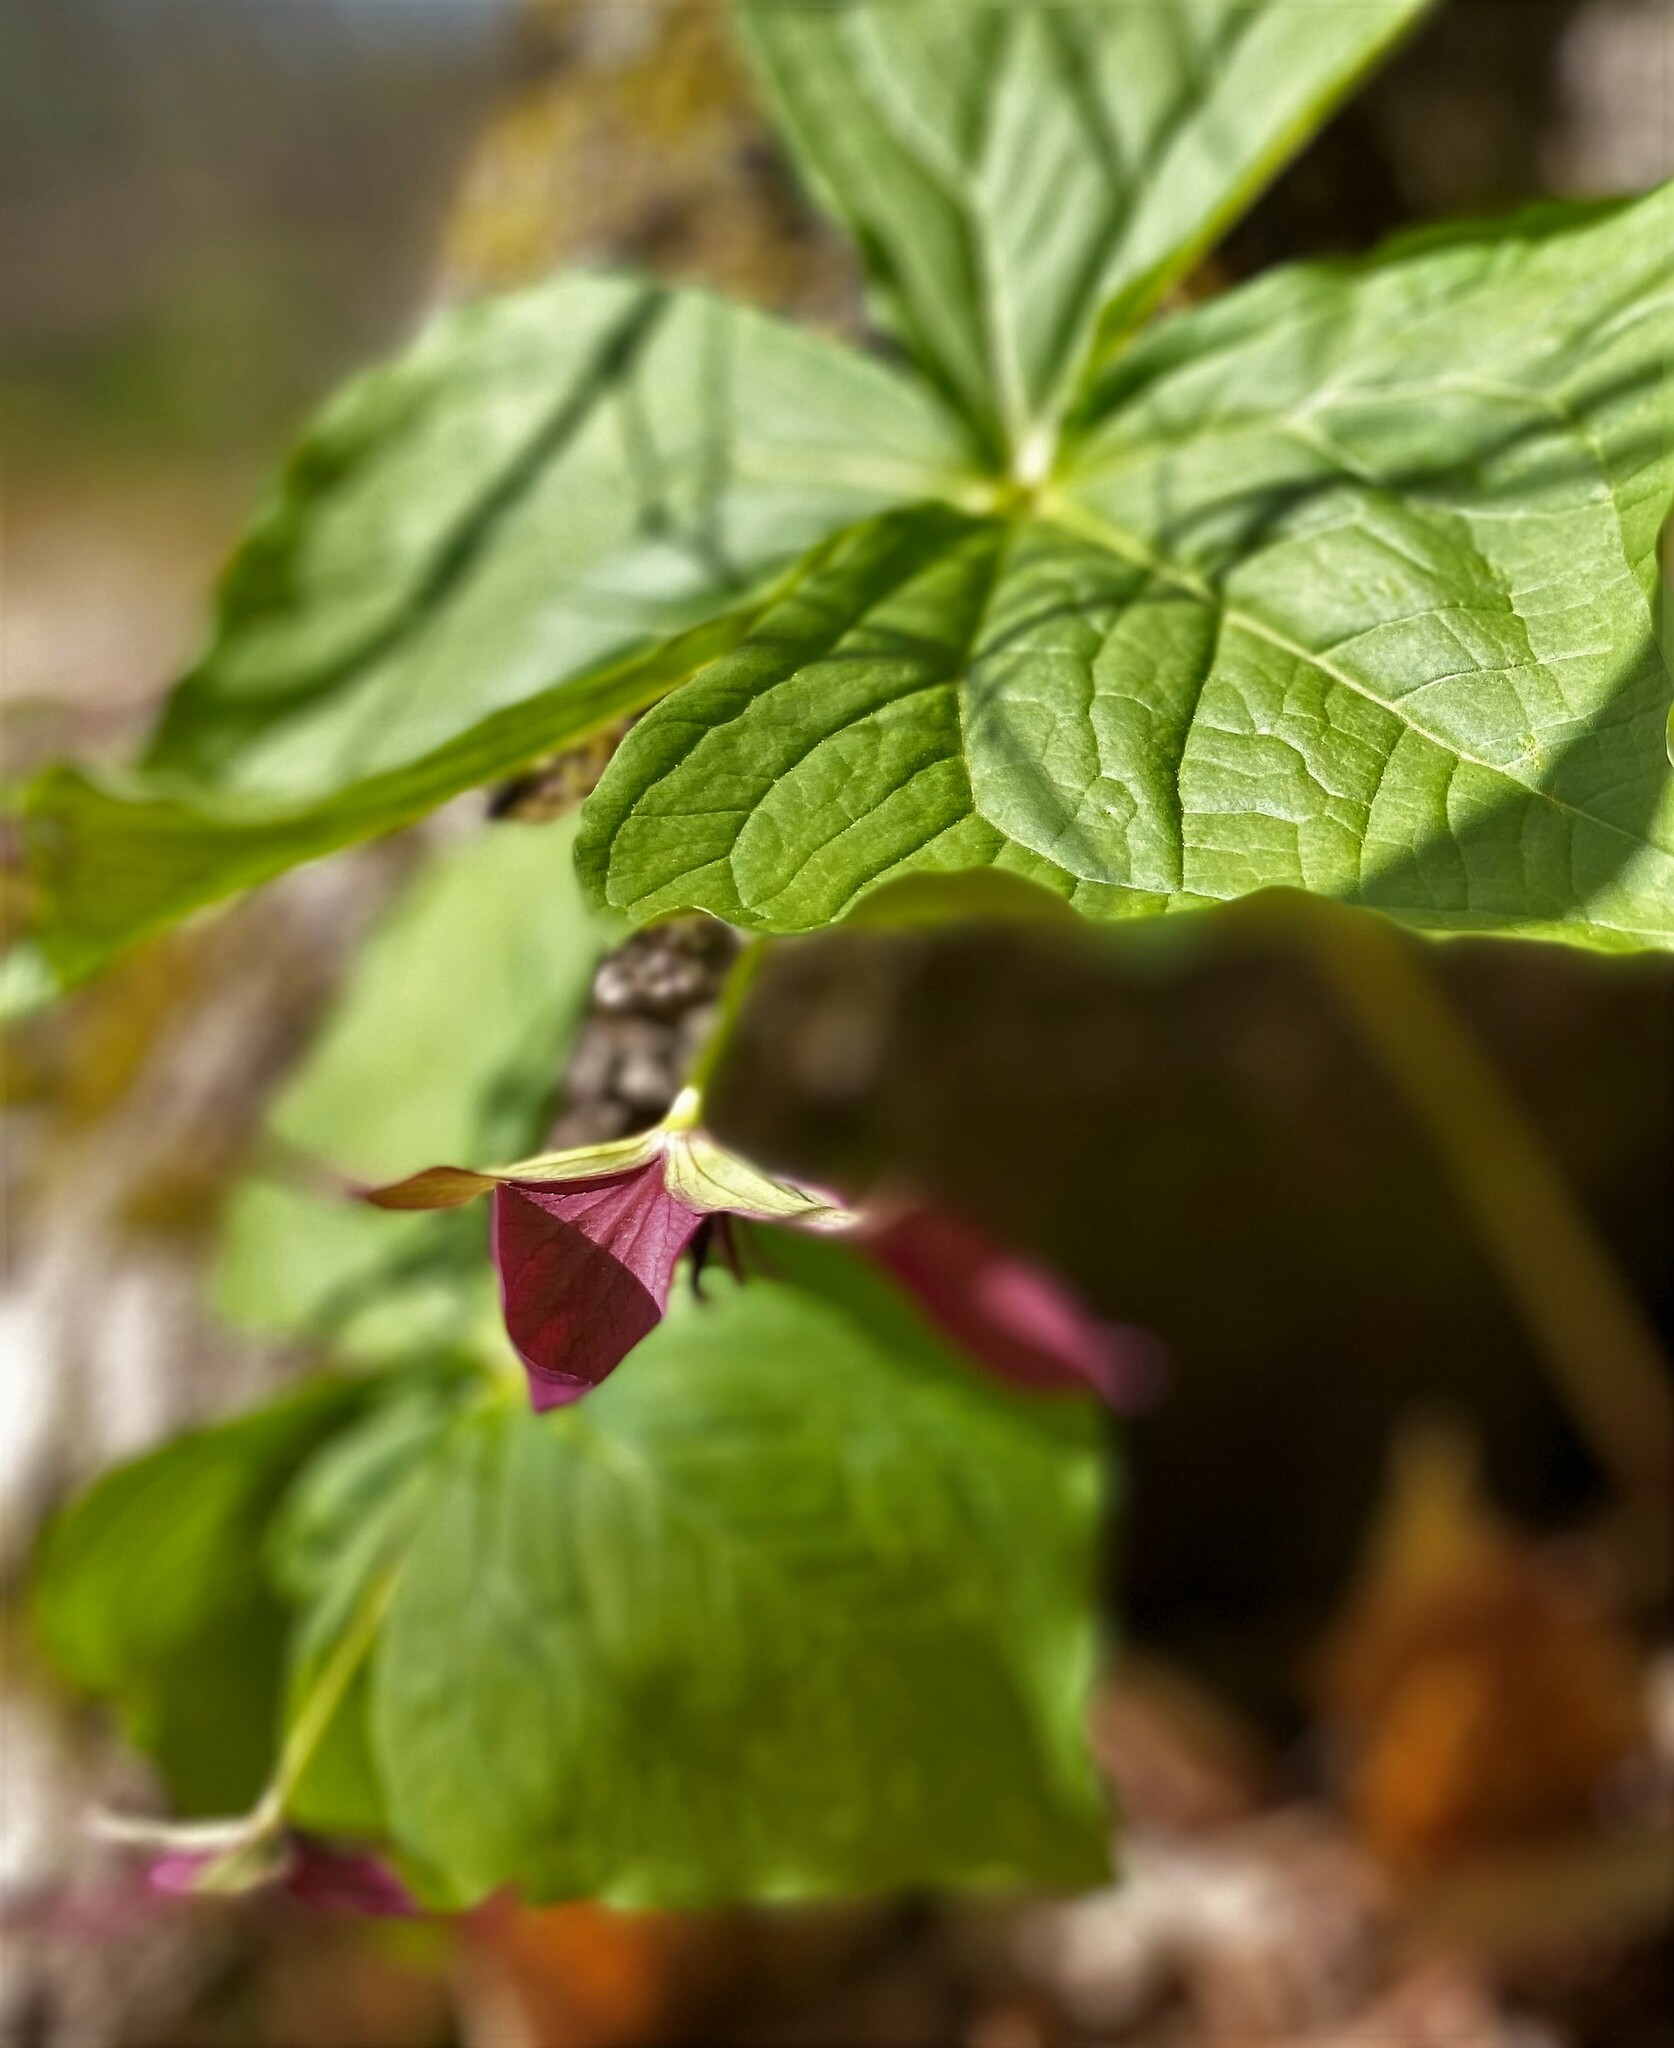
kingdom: Plantae
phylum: Tracheophyta
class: Liliopsida
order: Liliales
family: Melanthiaceae
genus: Trillium
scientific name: Trillium erectum
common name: Purple trillium
